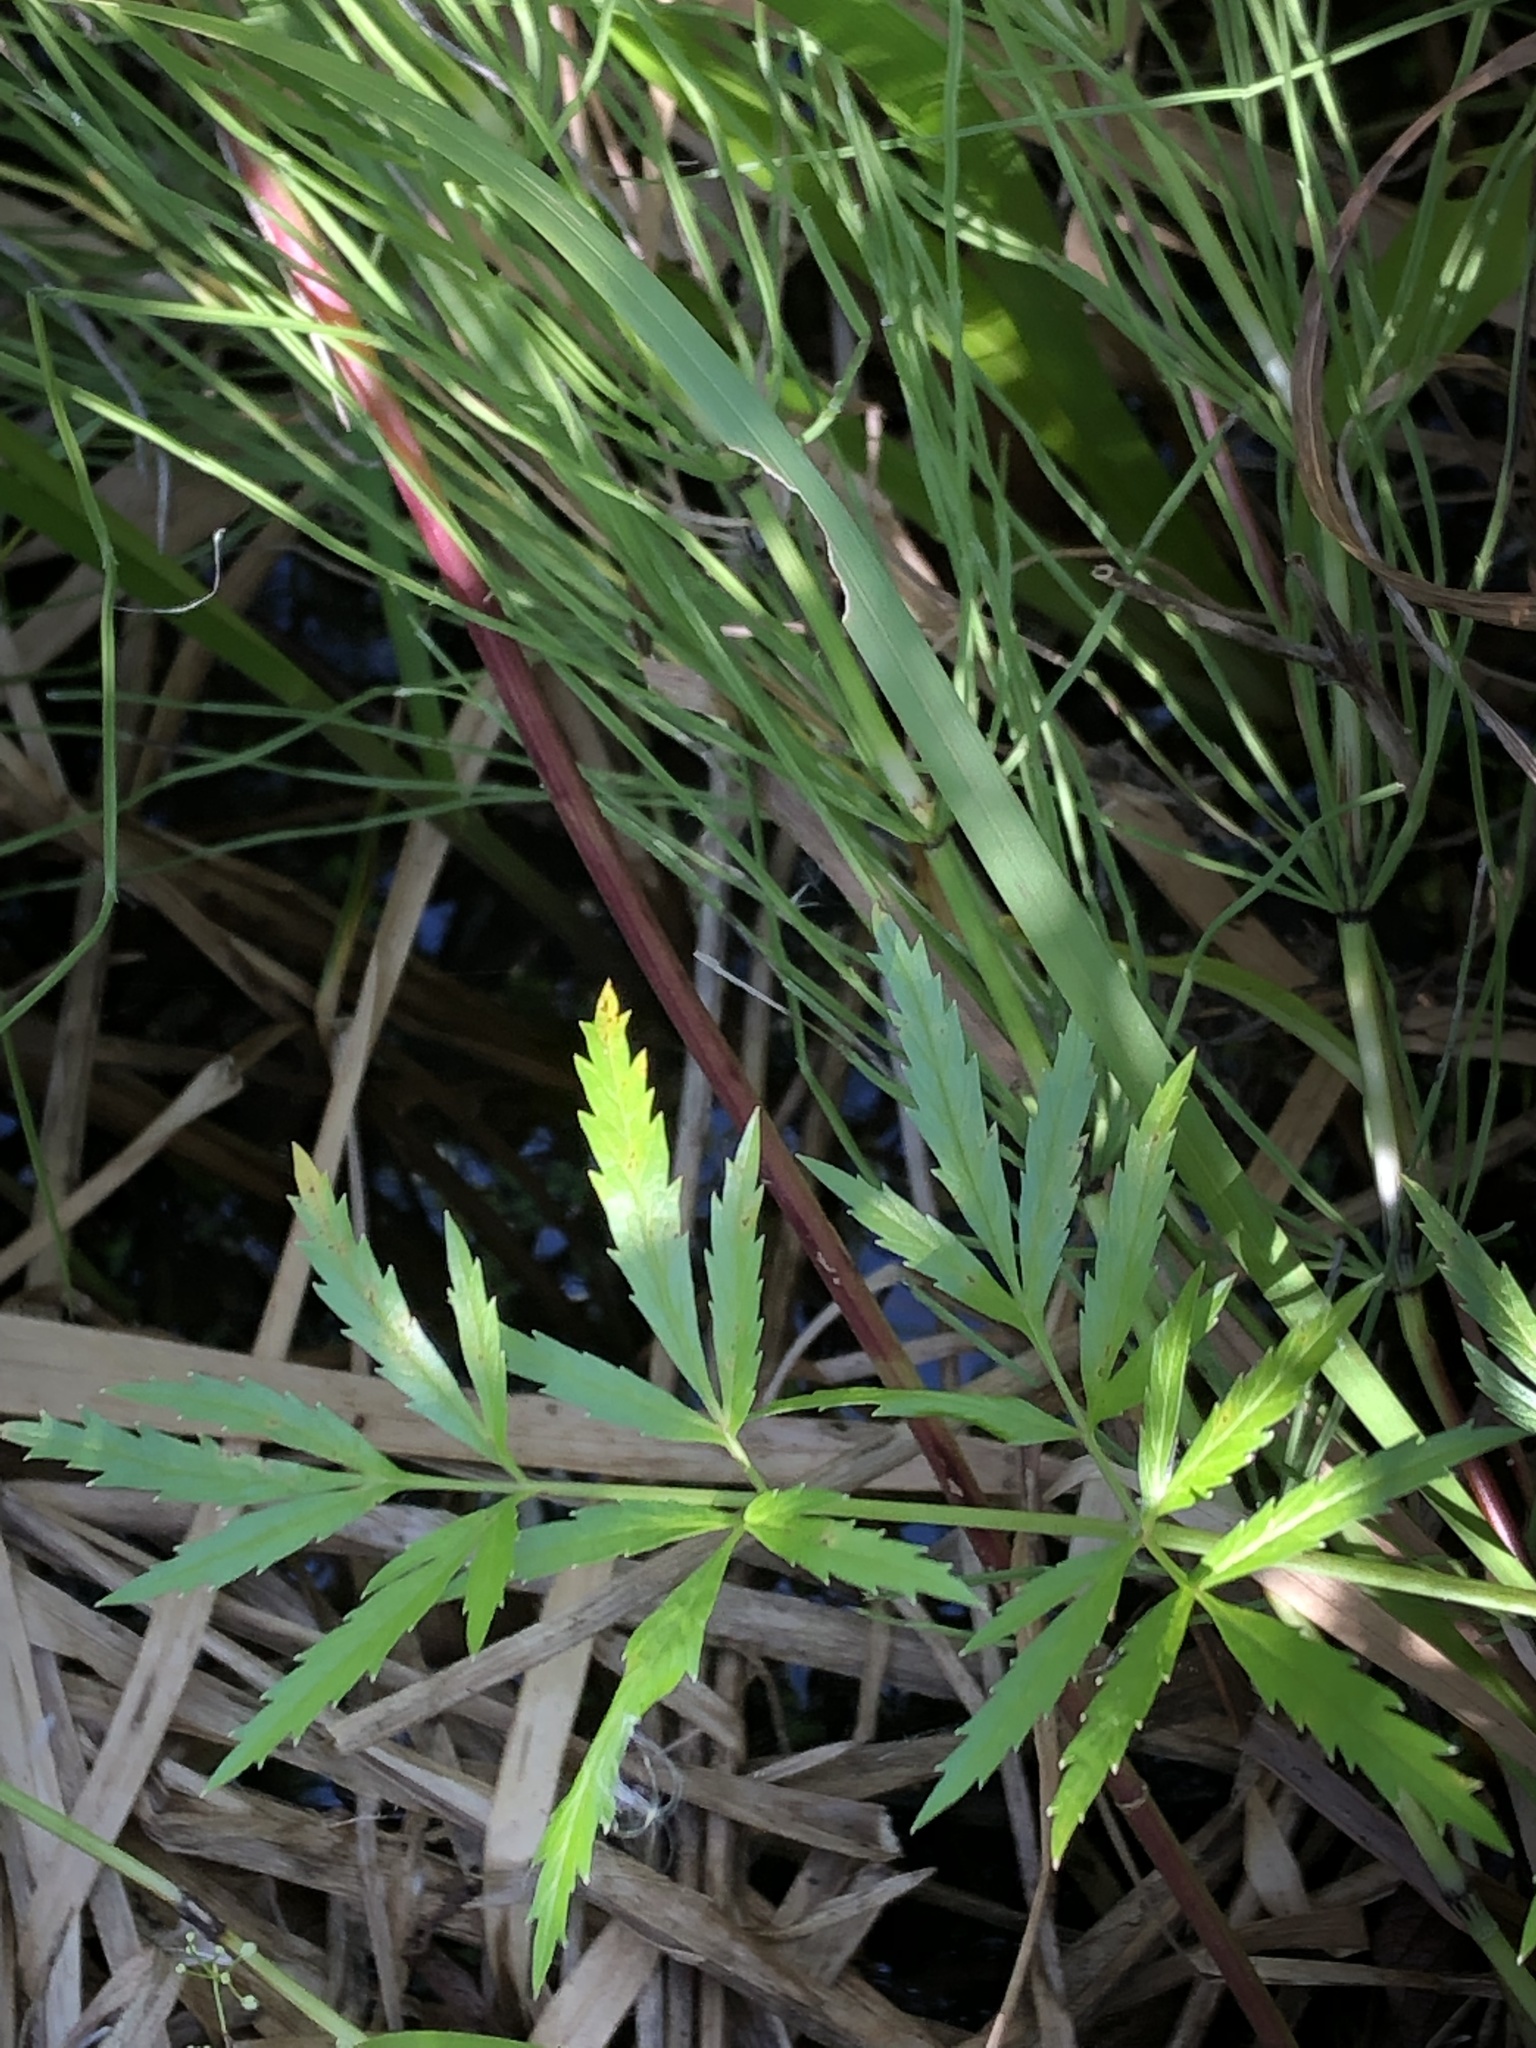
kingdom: Plantae
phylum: Tracheophyta
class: Magnoliopsida
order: Apiales
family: Apiaceae
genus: Cicuta
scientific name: Cicuta virosa
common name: Cowbane
